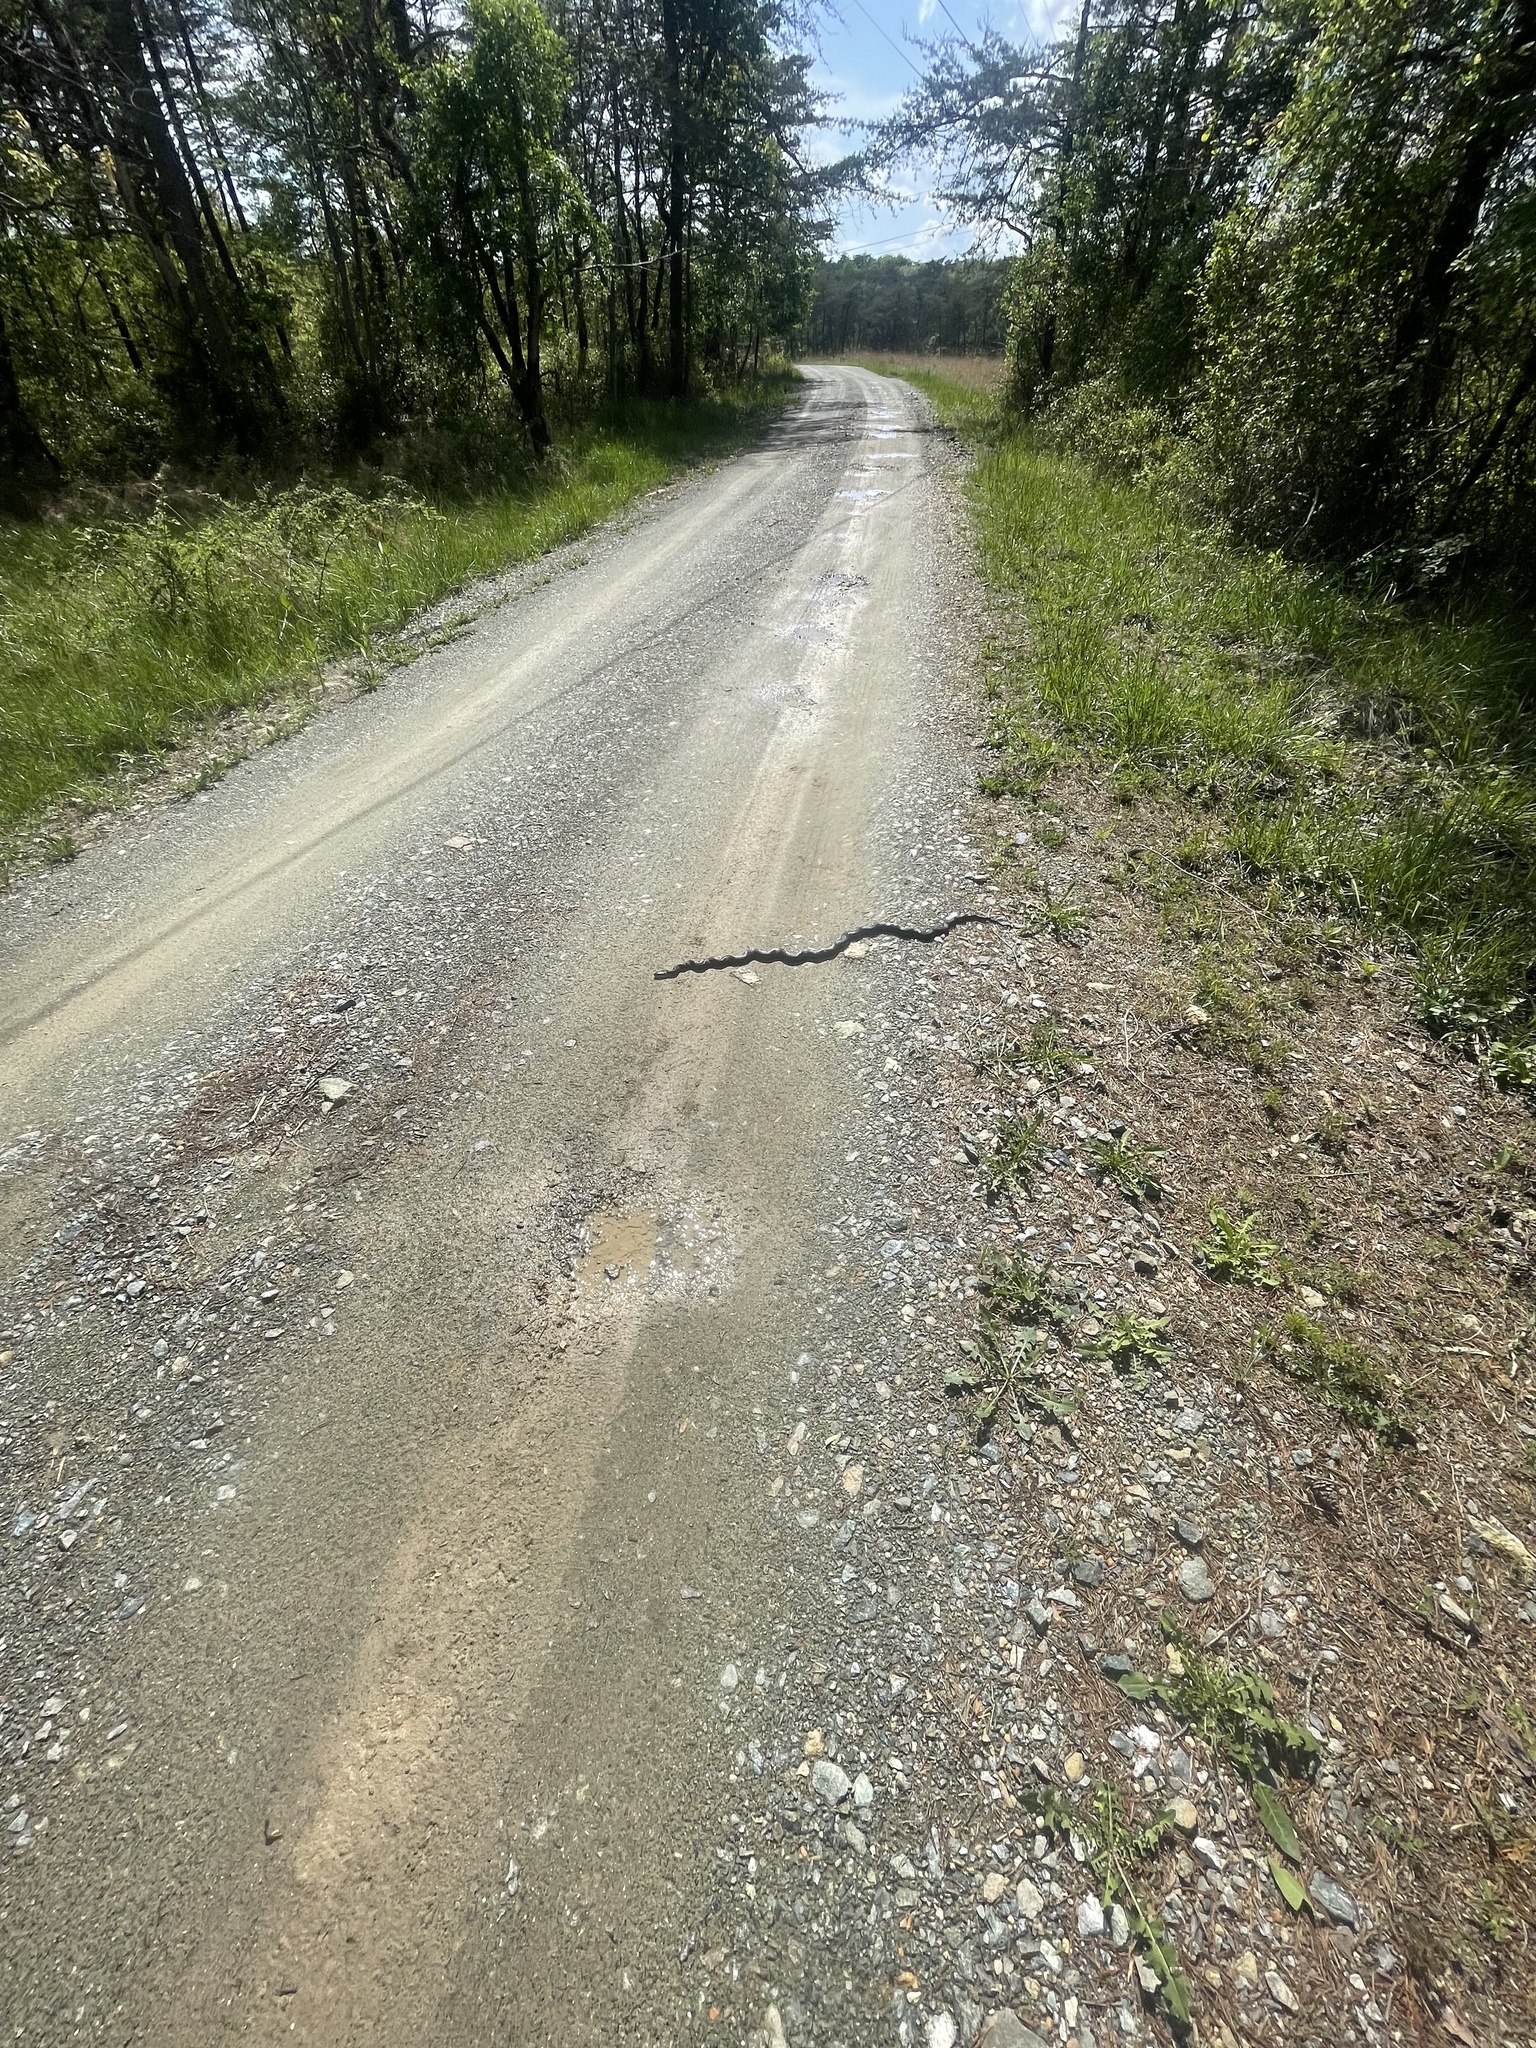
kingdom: Animalia
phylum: Chordata
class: Squamata
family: Colubridae
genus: Pantherophis
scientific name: Pantherophis alleghaniensis
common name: Eastern rat snake
